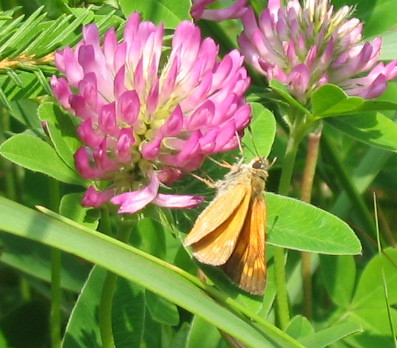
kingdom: Animalia
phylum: Arthropoda
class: Insecta
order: Lepidoptera
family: Hesperiidae
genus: Ochlodes
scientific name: Ochlodes venata
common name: Large skipper
